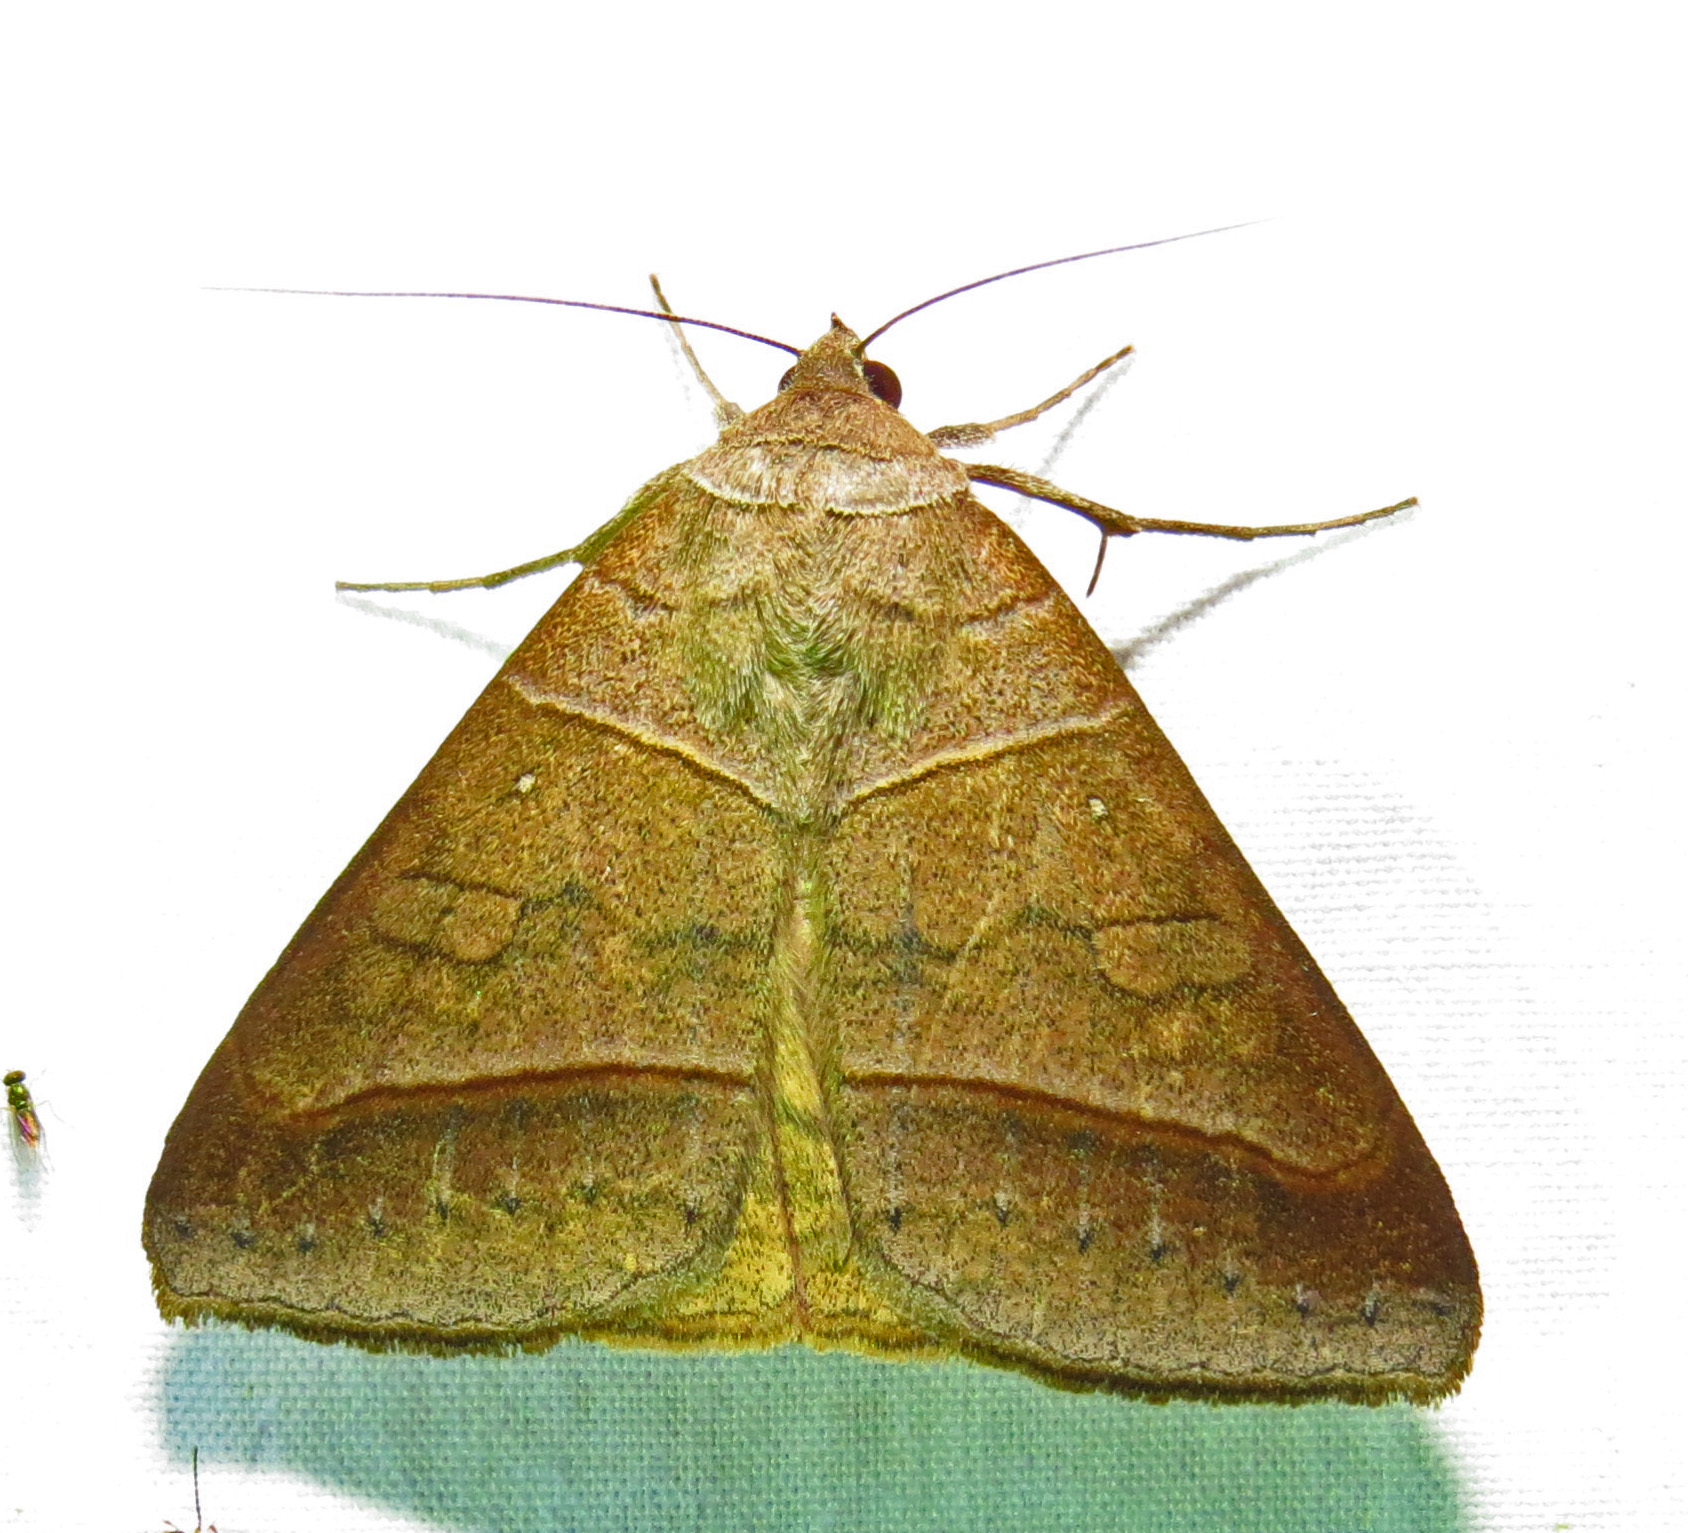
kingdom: Animalia
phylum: Arthropoda
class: Insecta
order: Lepidoptera
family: Erebidae
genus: Mocis
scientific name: Mocis texana
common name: Texas mocis moth
